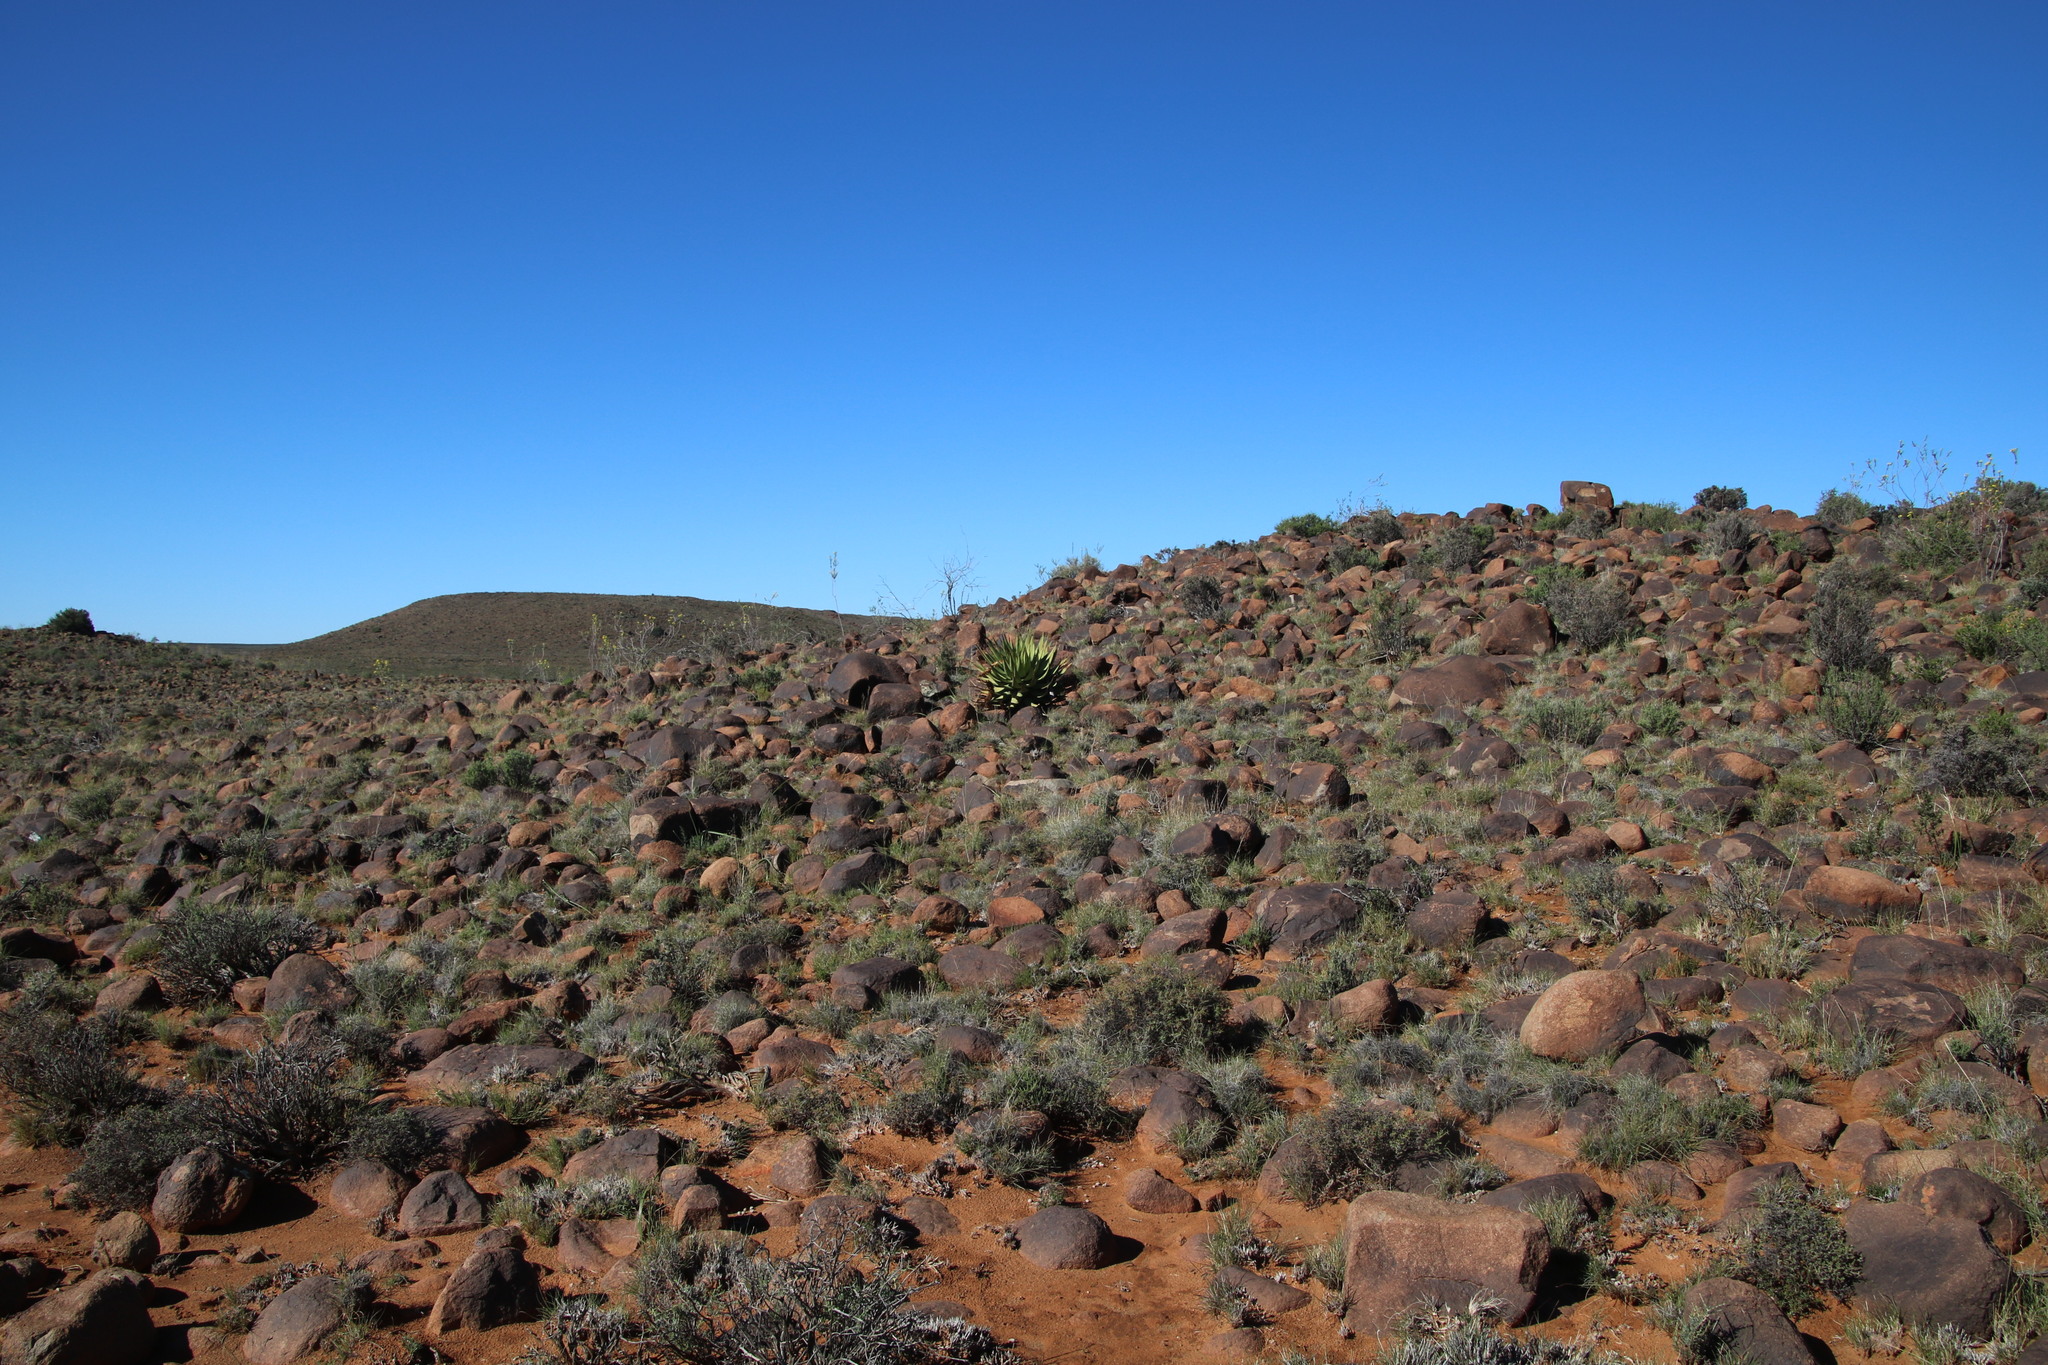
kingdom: Plantae
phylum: Tracheophyta
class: Liliopsida
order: Asparagales
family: Asphodelaceae
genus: Aloe
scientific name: Aloe broomii
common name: Berg alwyn
